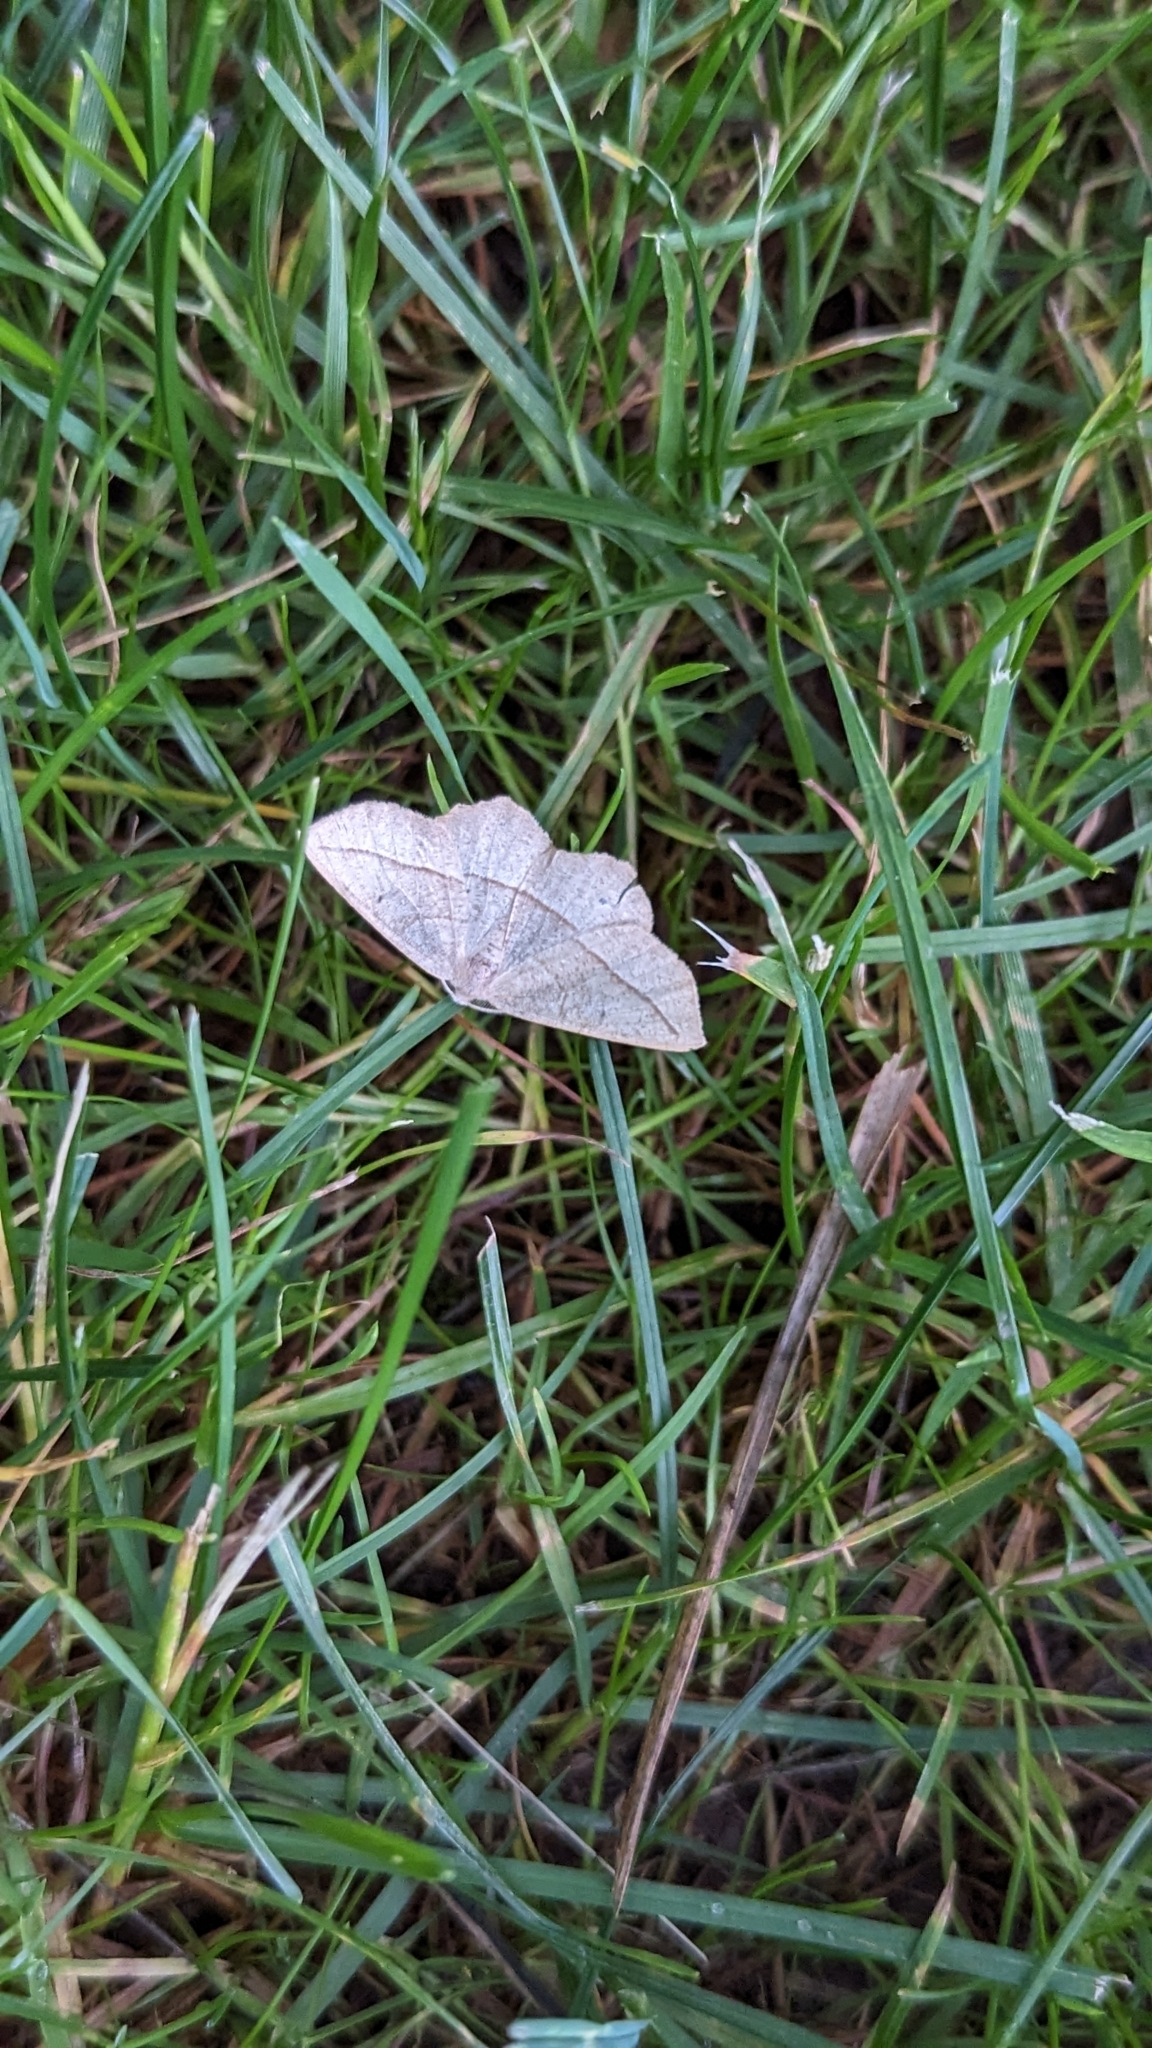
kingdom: Animalia
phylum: Arthropoda
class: Insecta
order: Lepidoptera
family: Geometridae
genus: Eusarca
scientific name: Eusarca confusaria
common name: Confused eusarca
